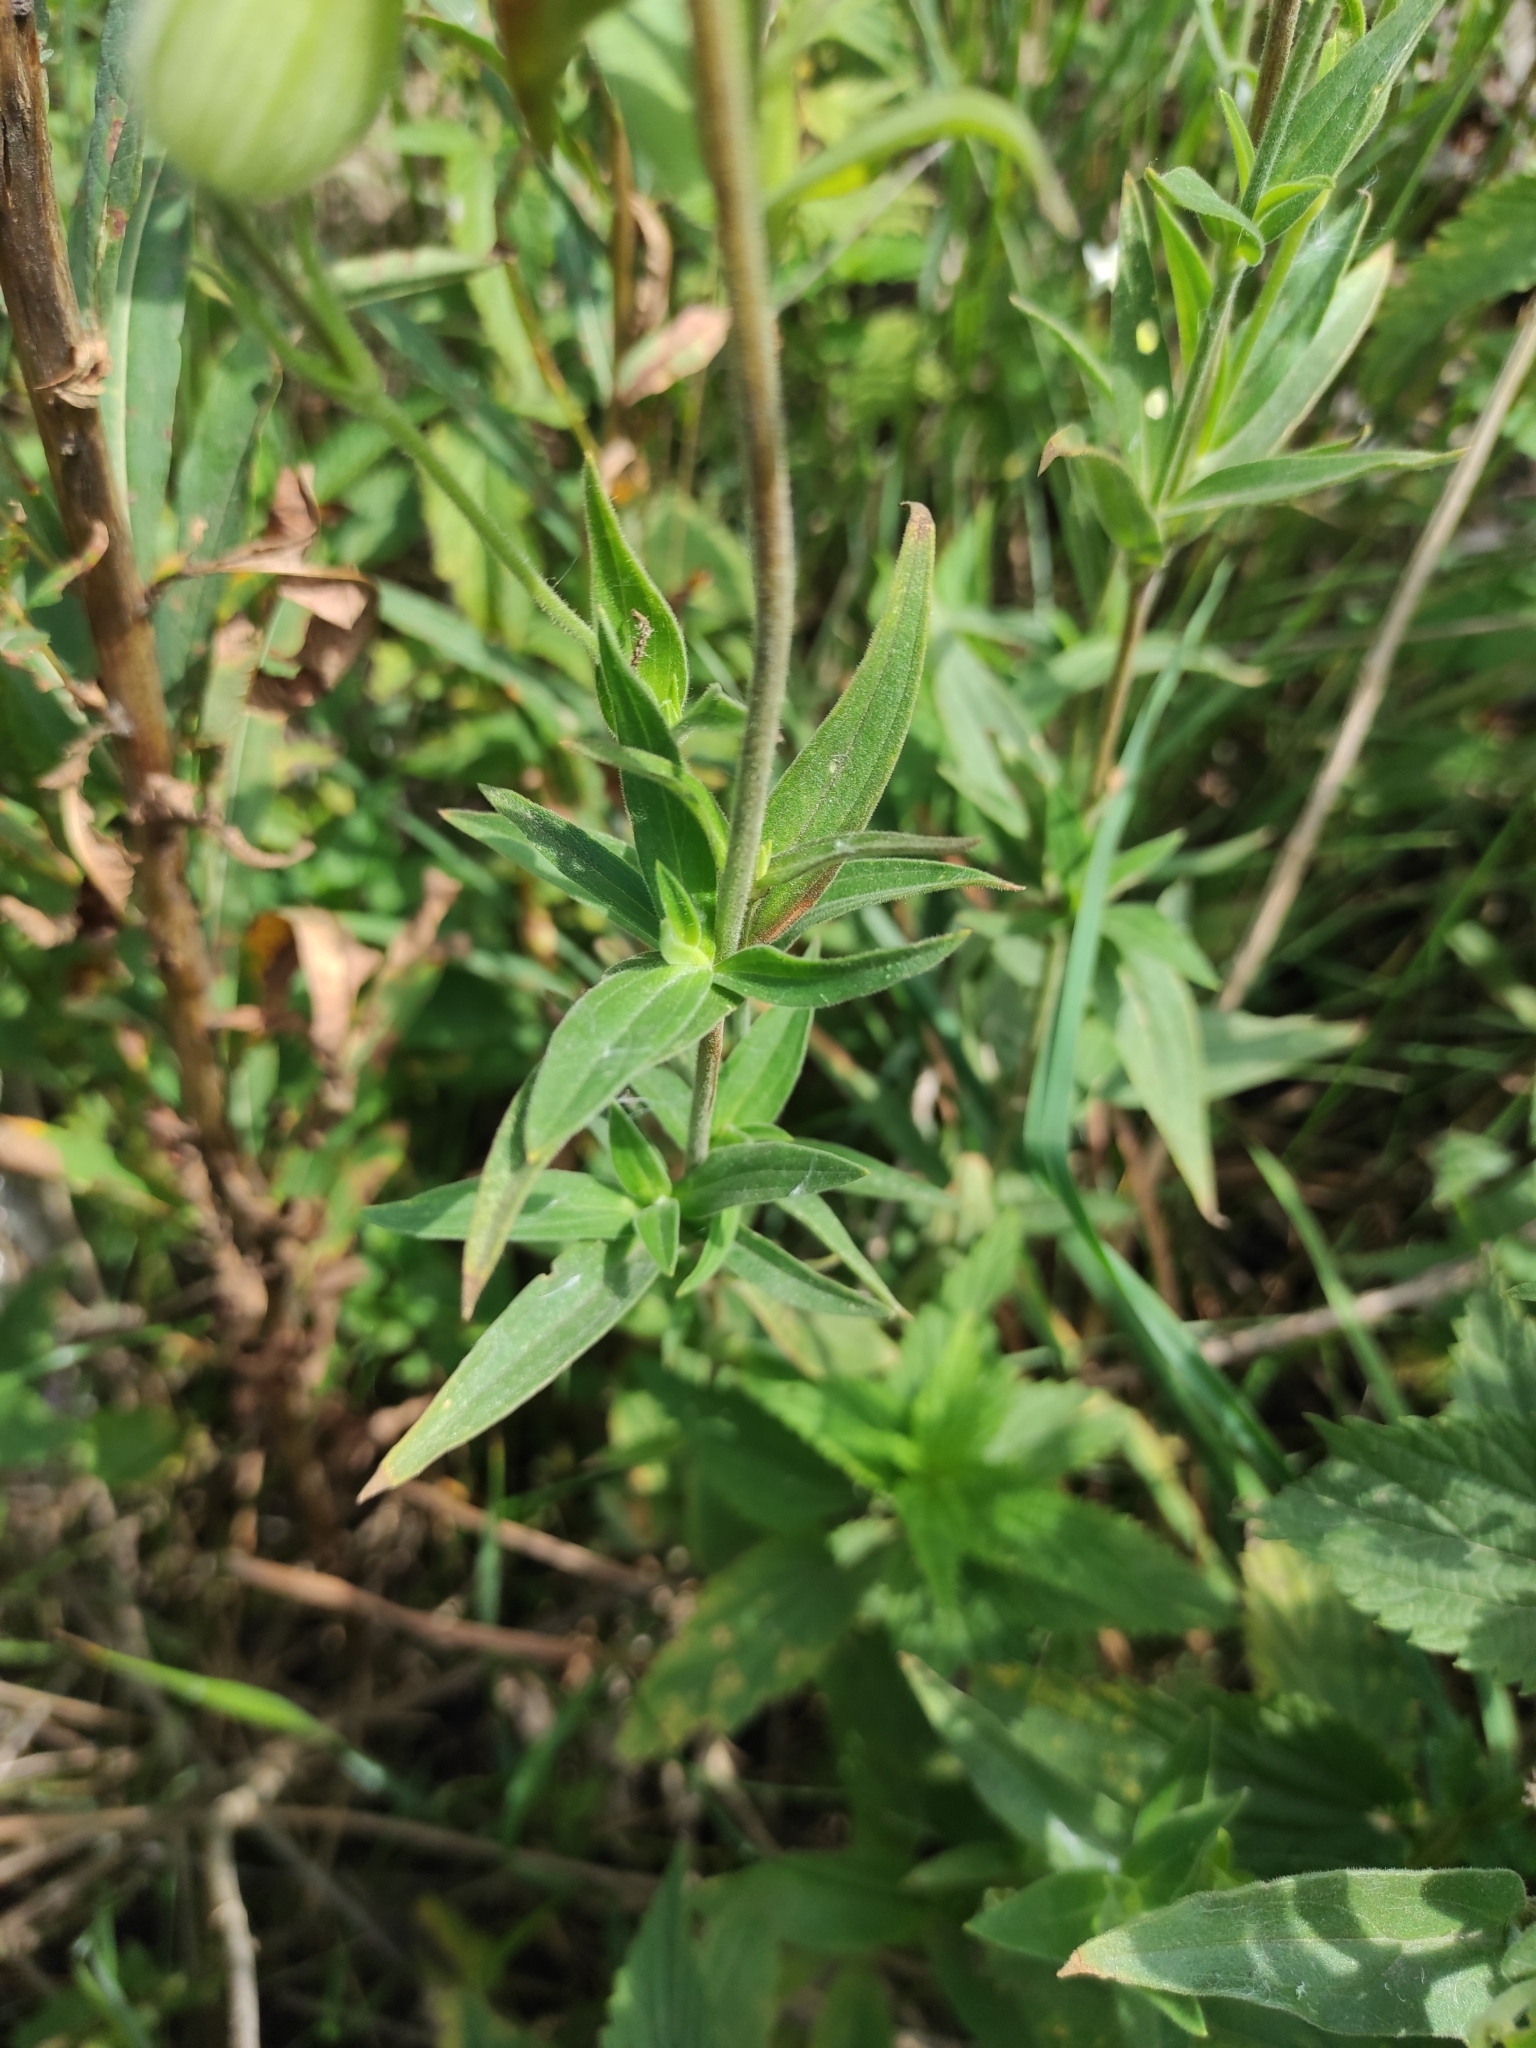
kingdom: Plantae
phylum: Tracheophyta
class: Magnoliopsida
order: Caryophyllales
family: Caryophyllaceae
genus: Silene
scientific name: Silene latifolia
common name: White campion
